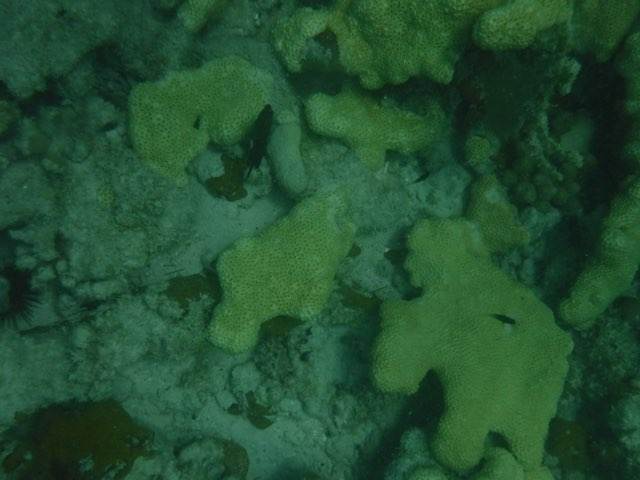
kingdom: Animalia
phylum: Cnidaria
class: Anthozoa
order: Zoantharia
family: Sphenopidae
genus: Palythoa
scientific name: Palythoa caribaeorum
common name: Encrusting colonial anemone
